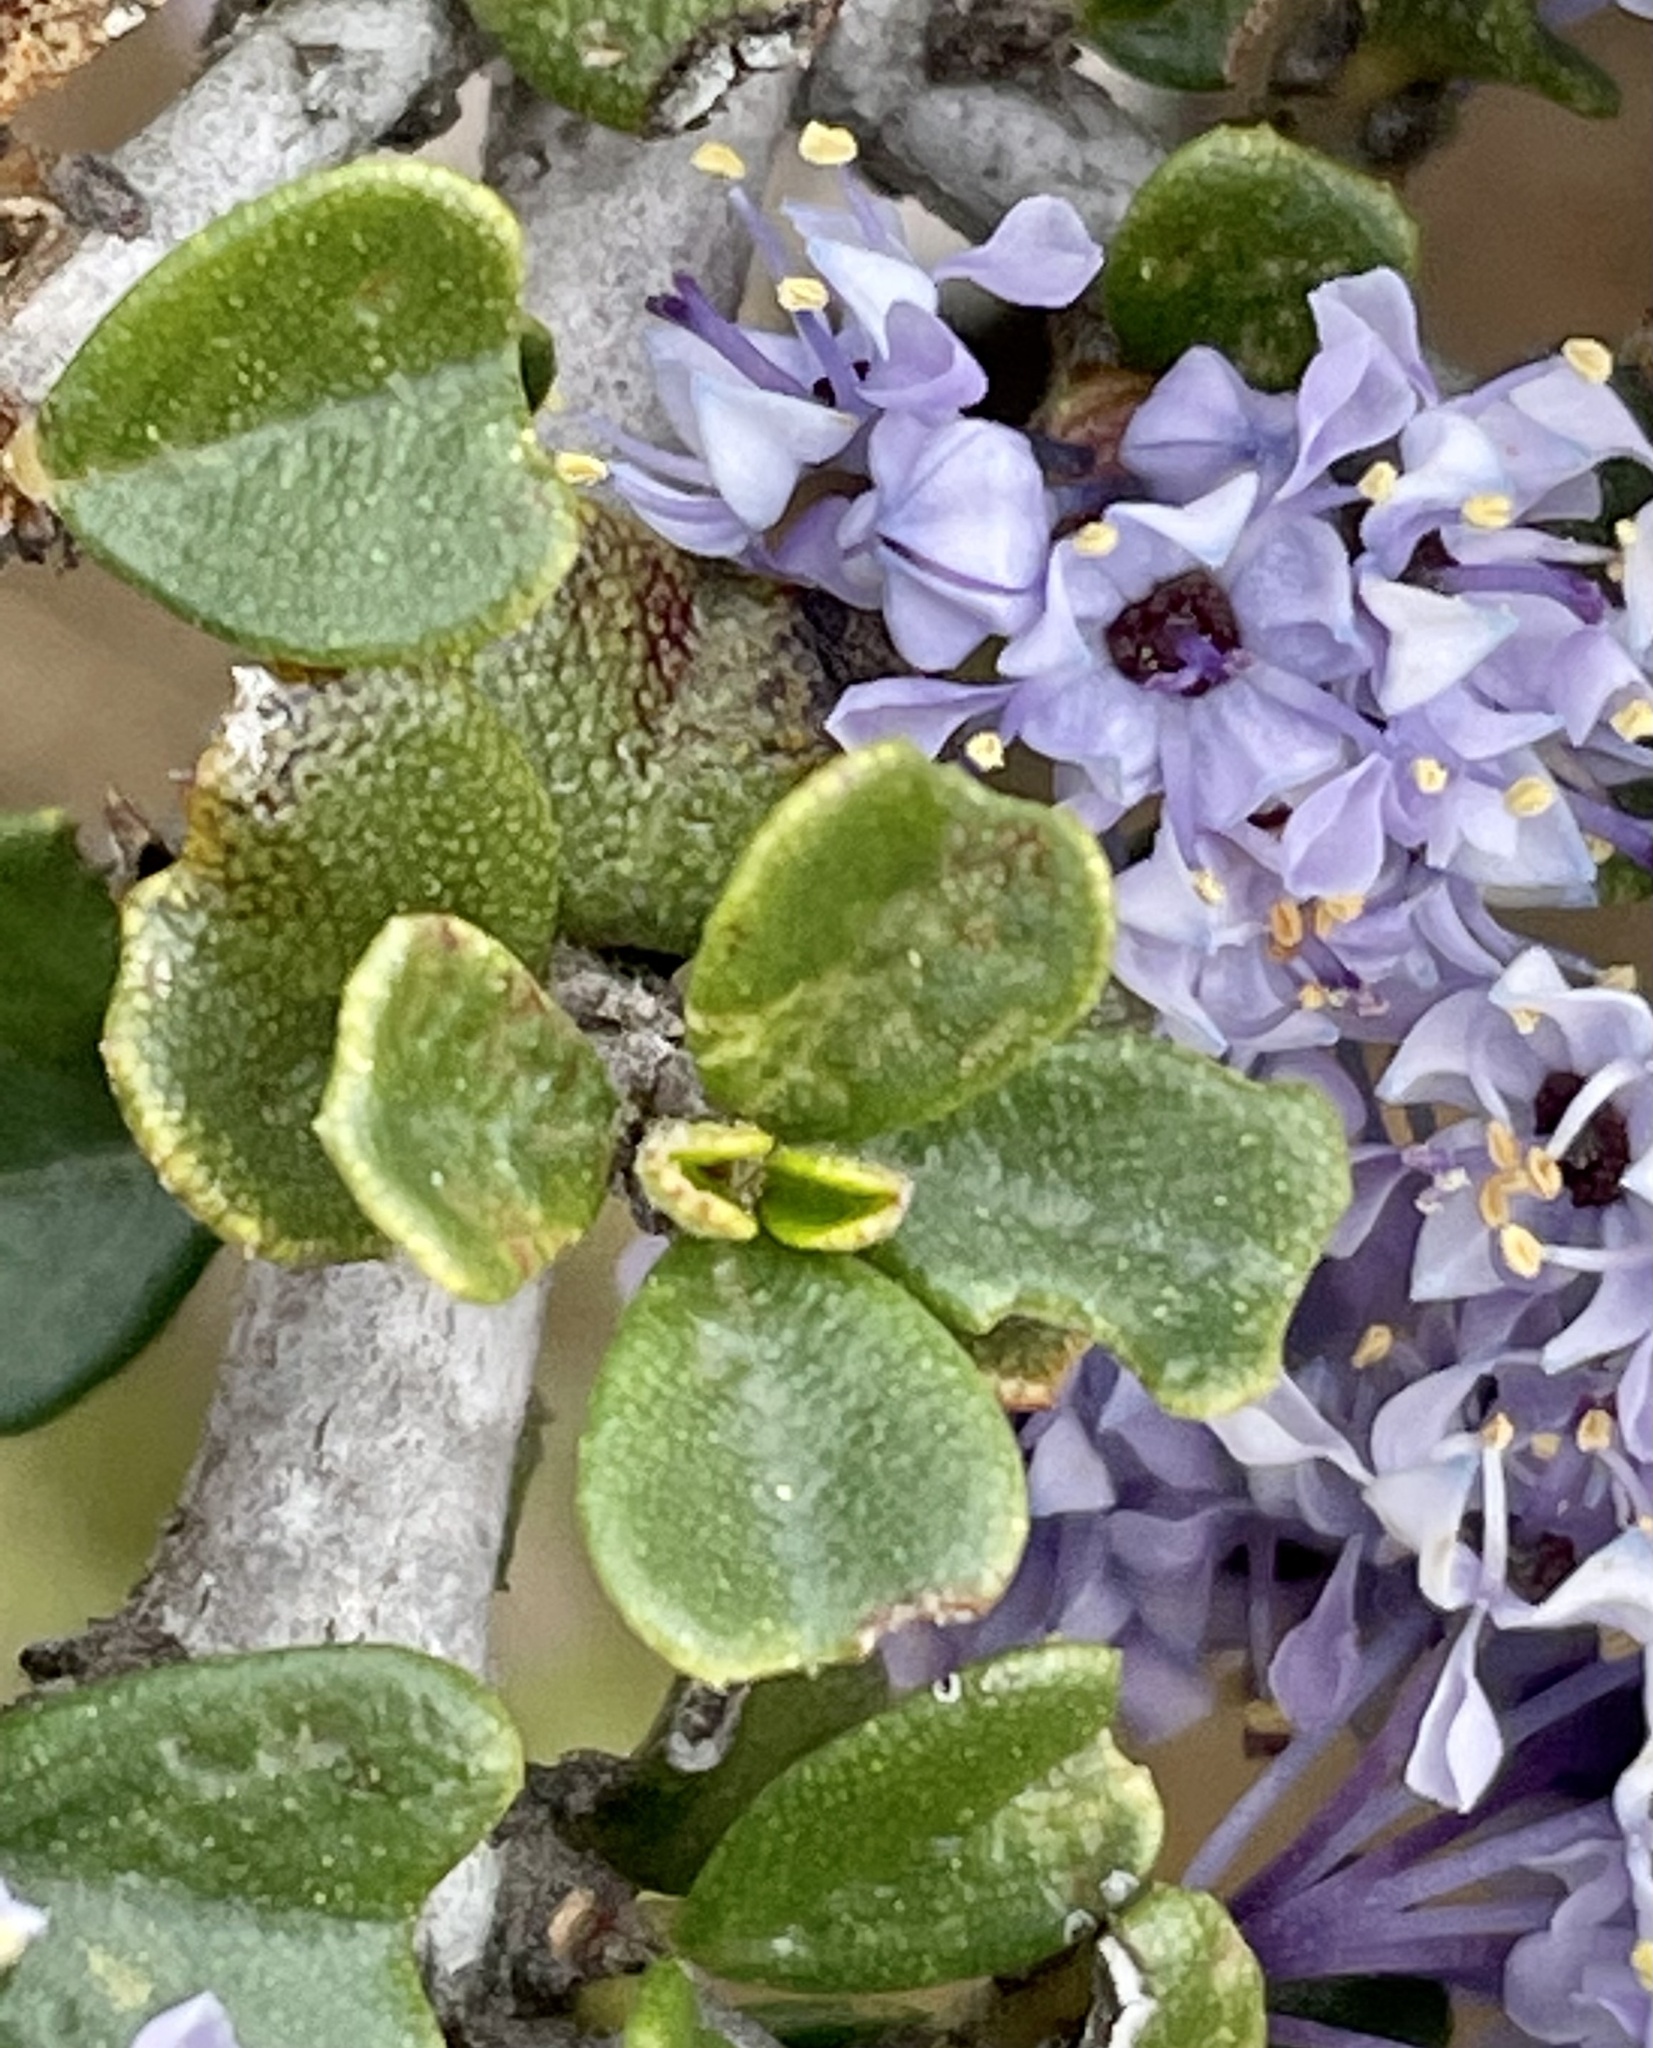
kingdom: Plantae
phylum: Tracheophyta
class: Magnoliopsida
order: Rosales
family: Rhamnaceae
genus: Ceanothus
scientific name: Ceanothus cuneatus
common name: Cuneate ceanothus
